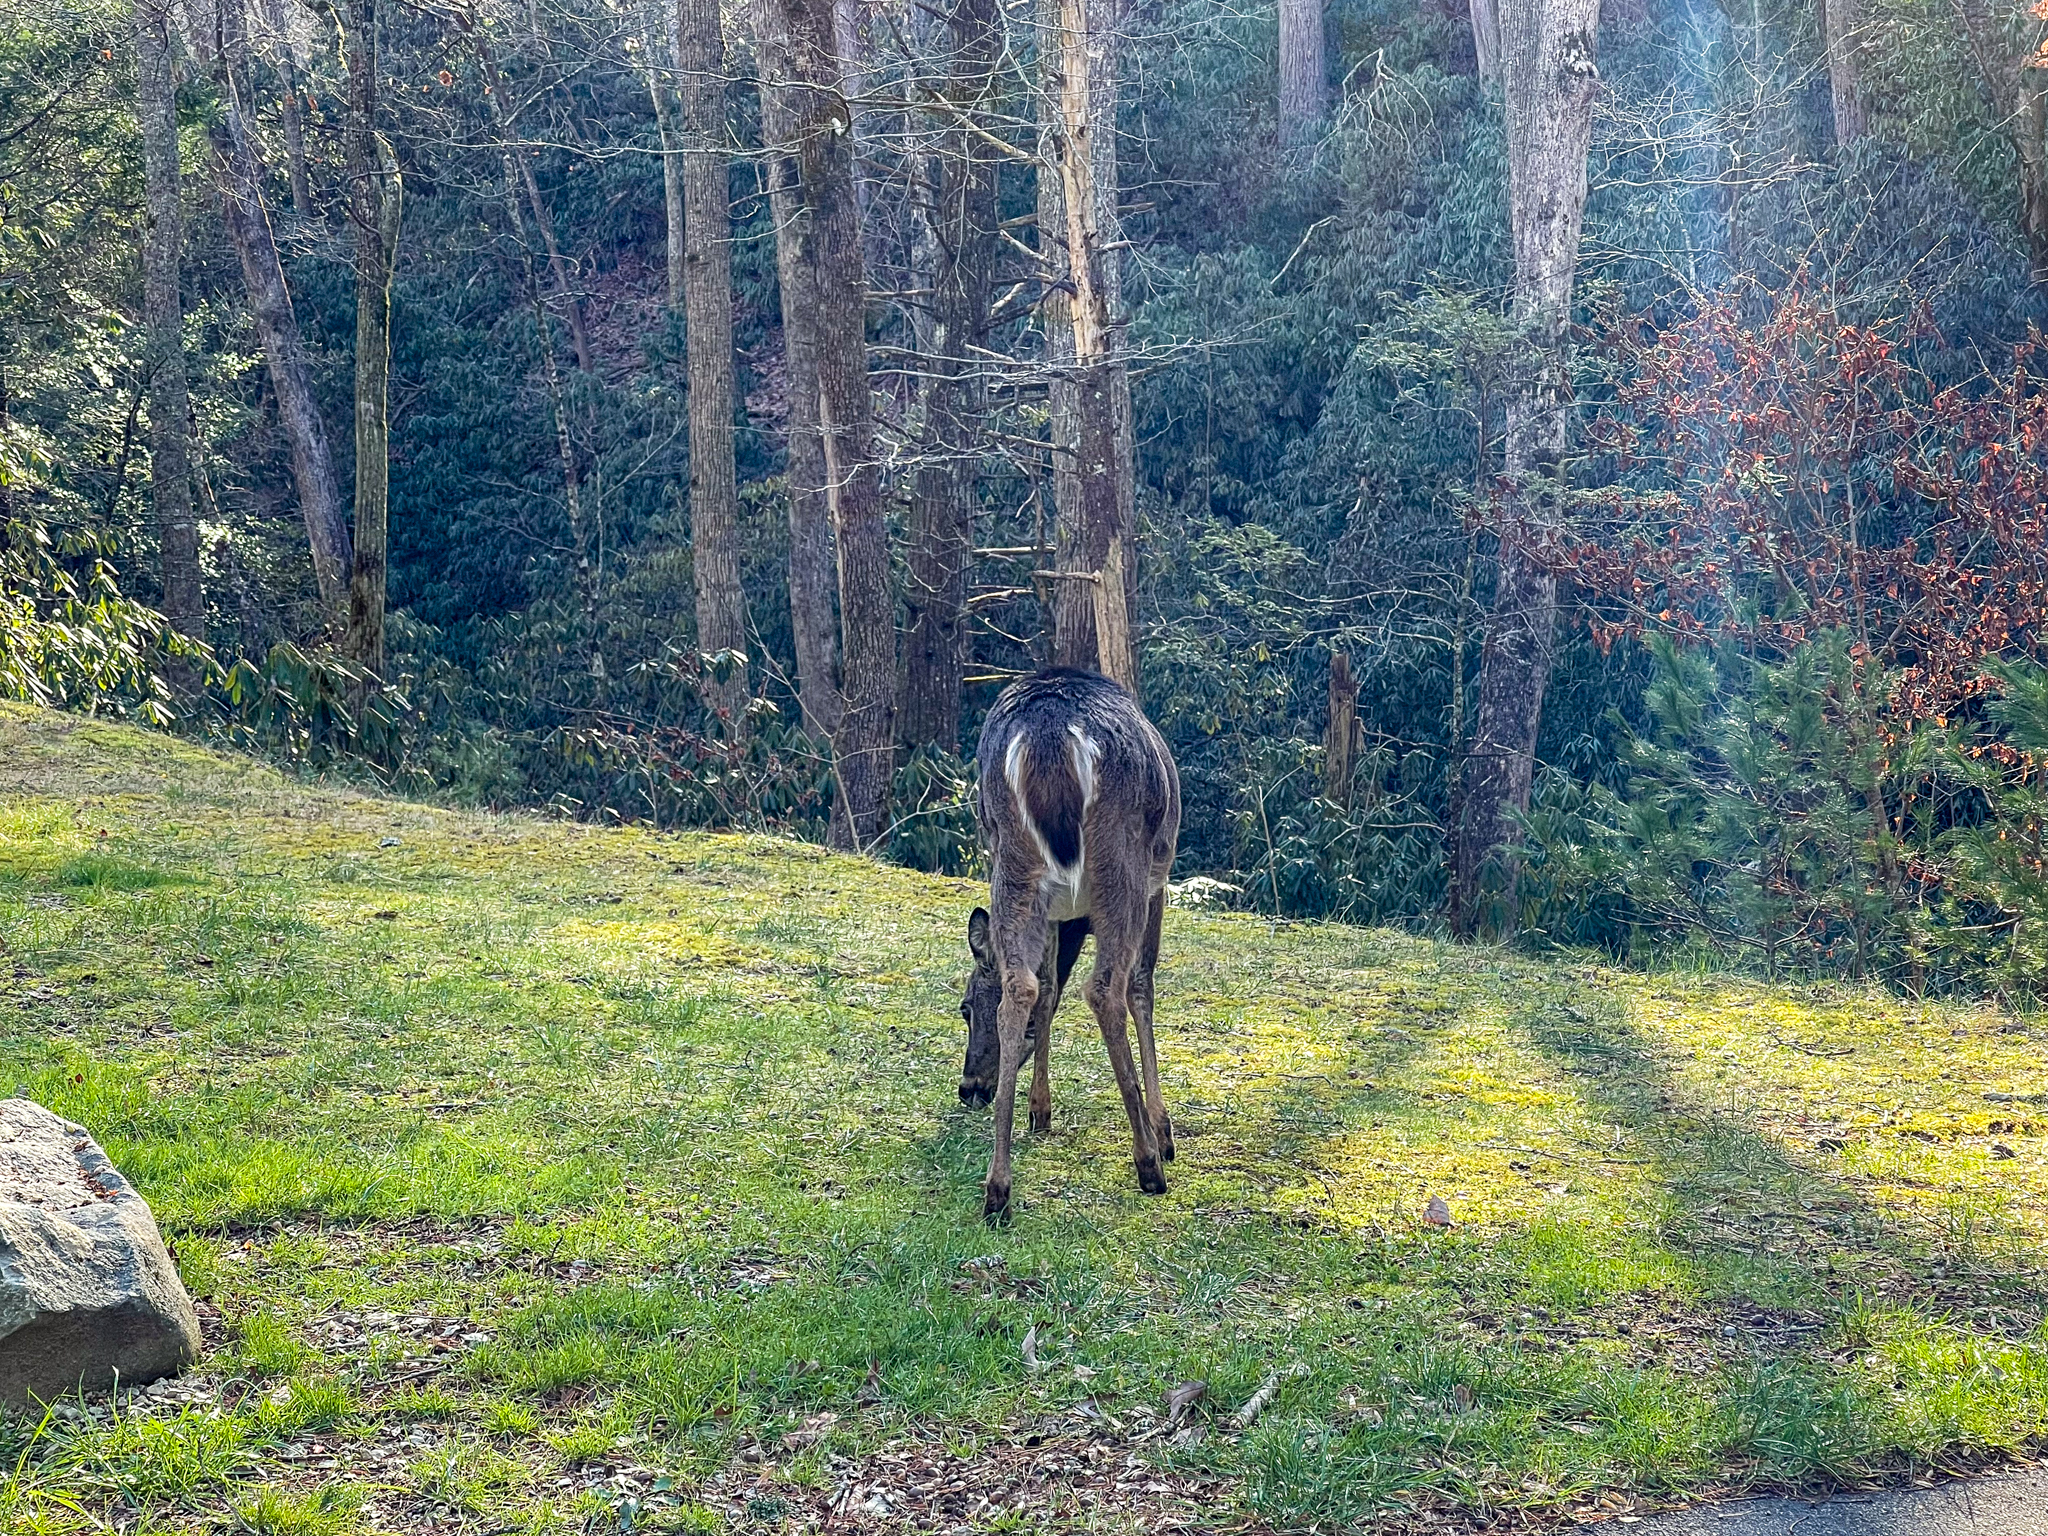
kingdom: Animalia
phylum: Chordata
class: Mammalia
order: Artiodactyla
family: Cervidae
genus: Odocoileus
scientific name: Odocoileus virginianus
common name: White-tailed deer
